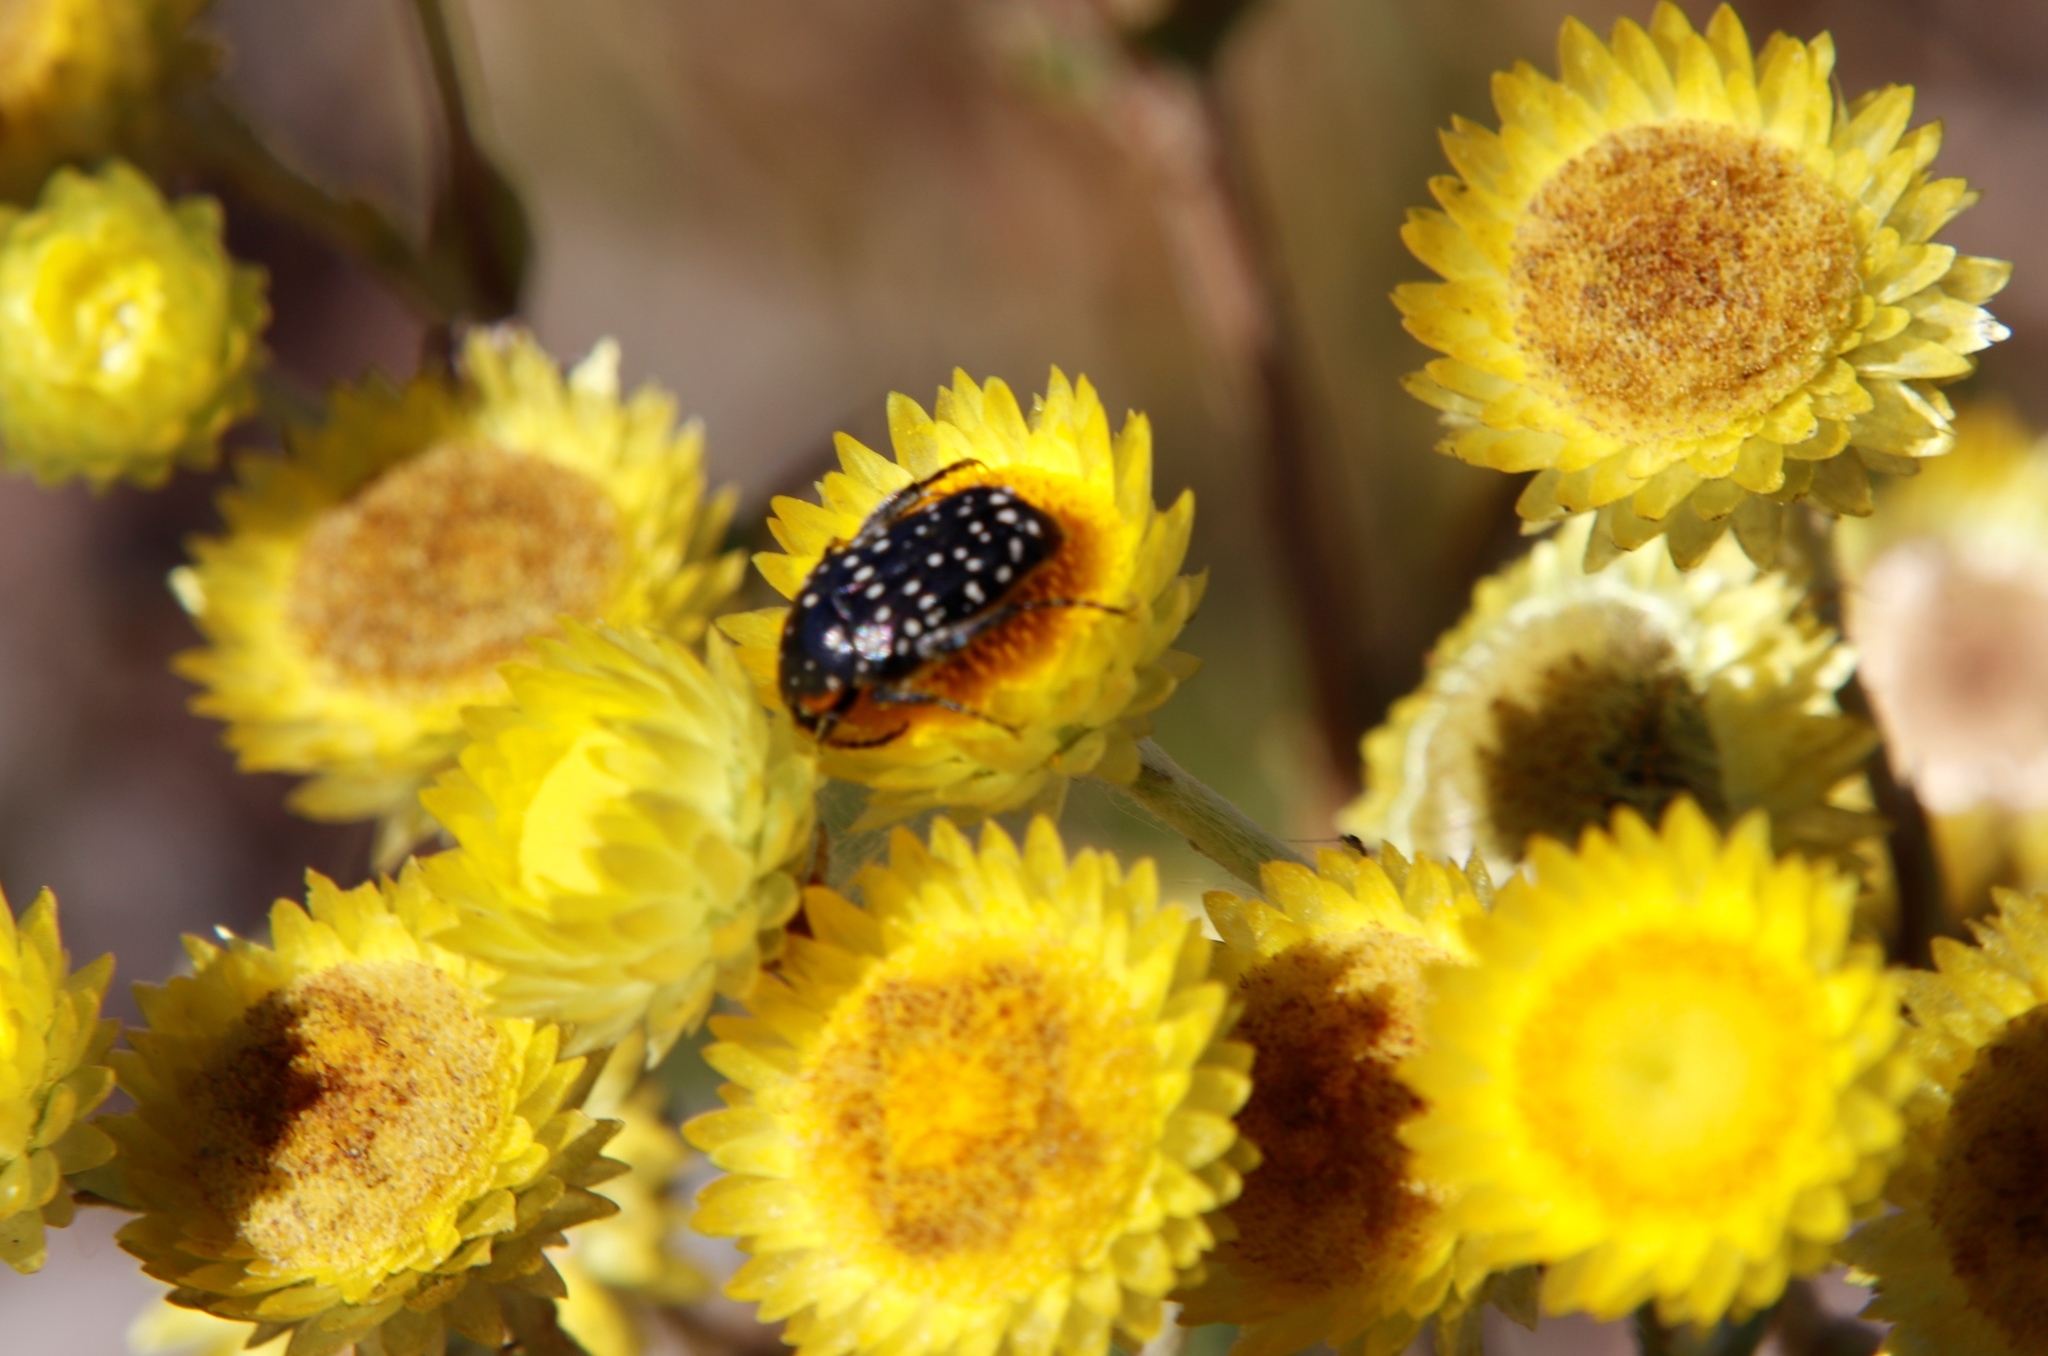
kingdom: Animalia
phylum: Arthropoda
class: Insecta
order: Coleoptera
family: Scarabaeidae
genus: Oxythyrea
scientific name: Oxythyrea
